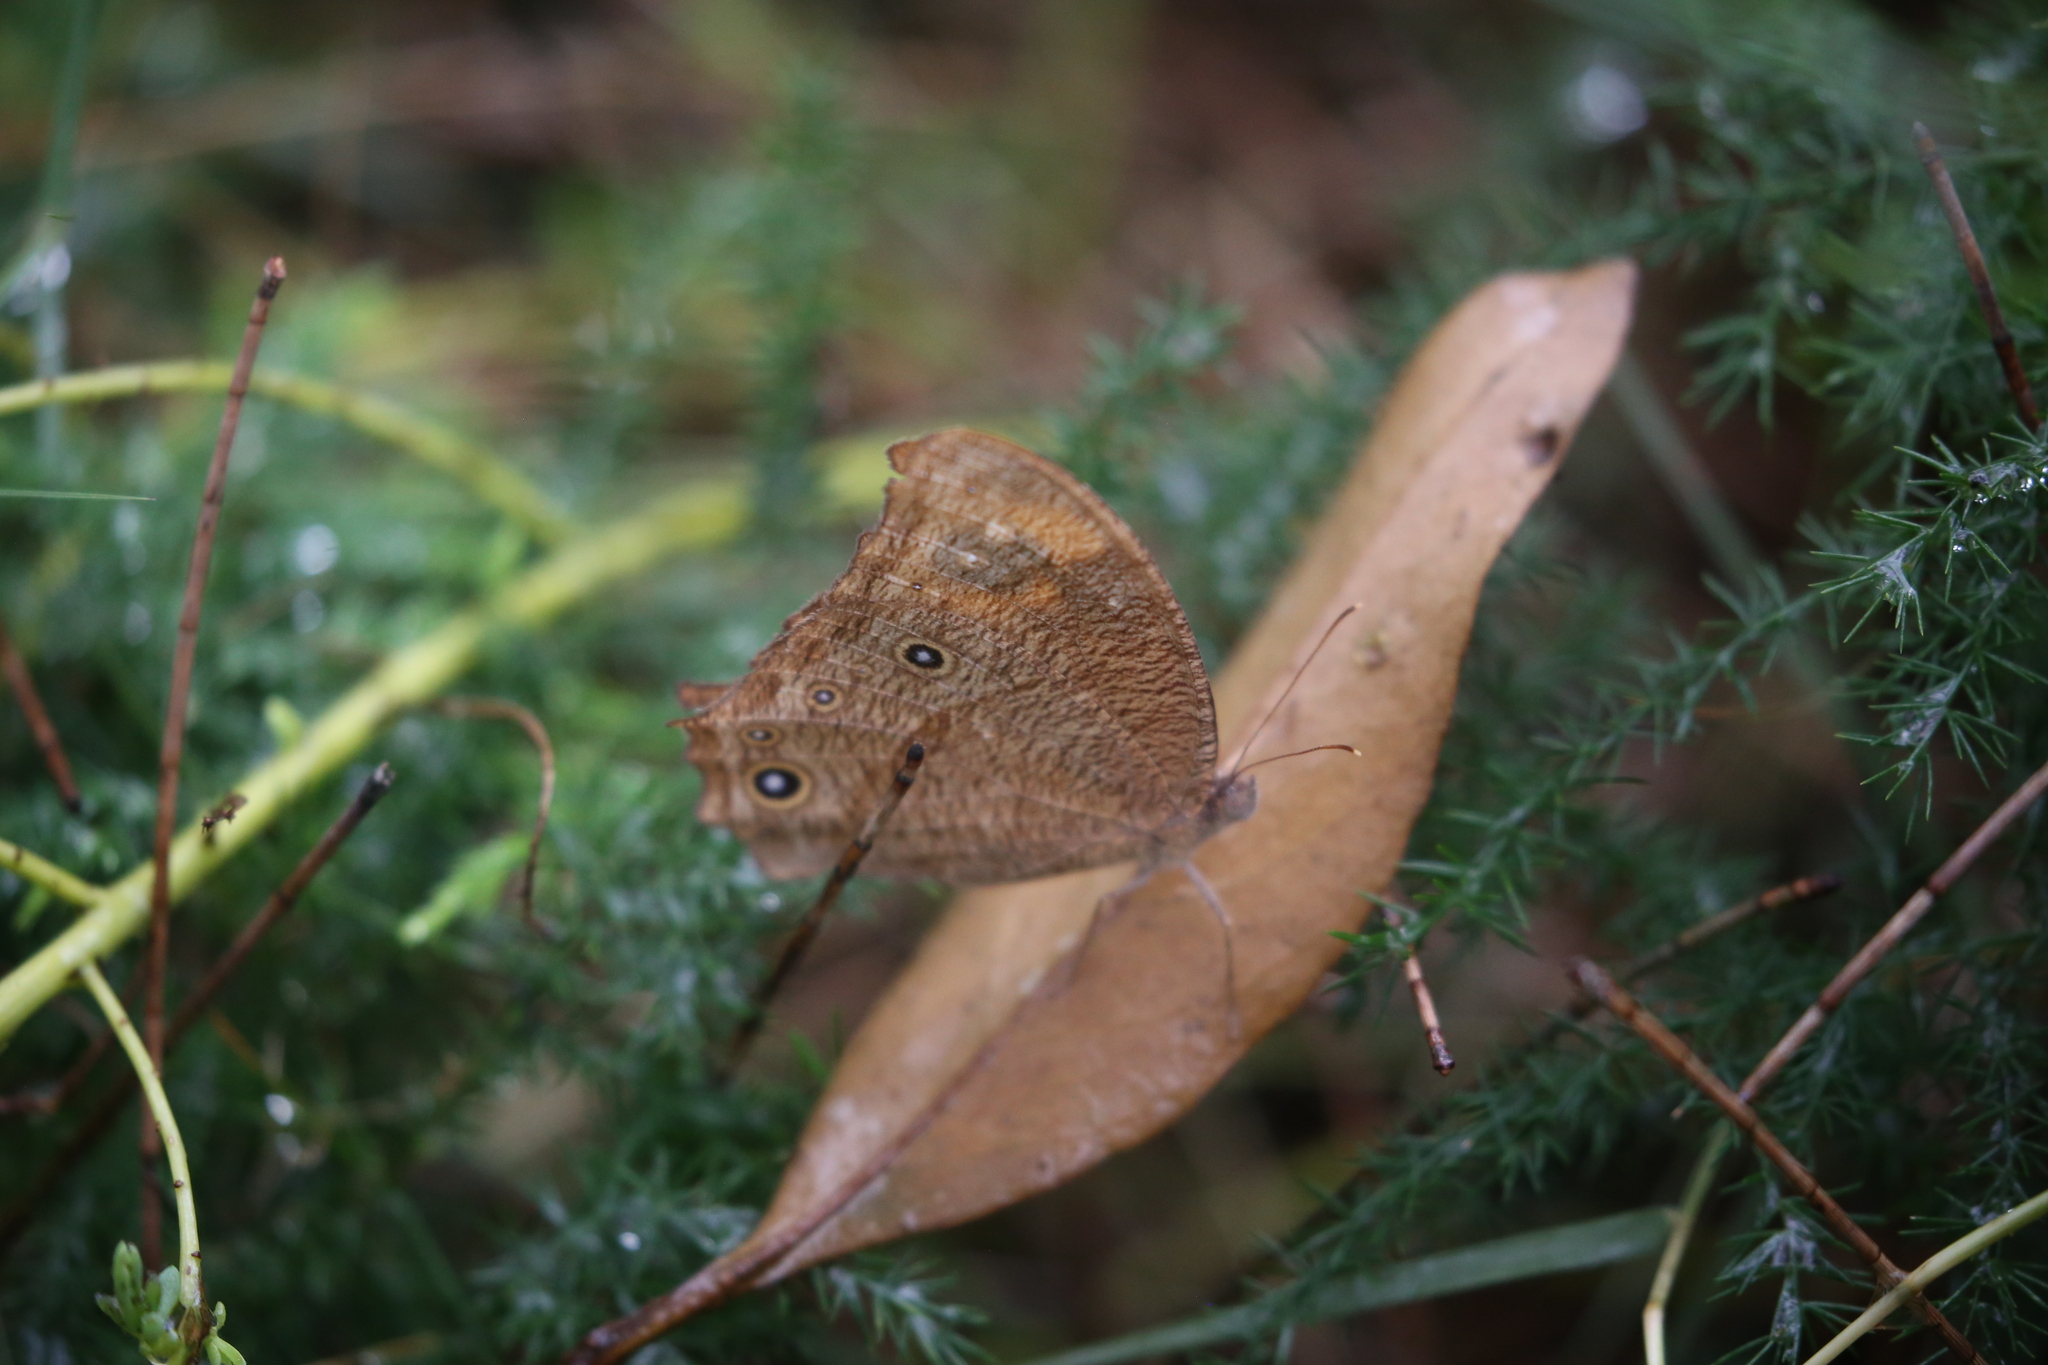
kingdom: Animalia
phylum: Arthropoda
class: Insecta
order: Lepidoptera
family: Nymphalidae
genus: Melanitis
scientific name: Melanitis leda
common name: Twilight brown
